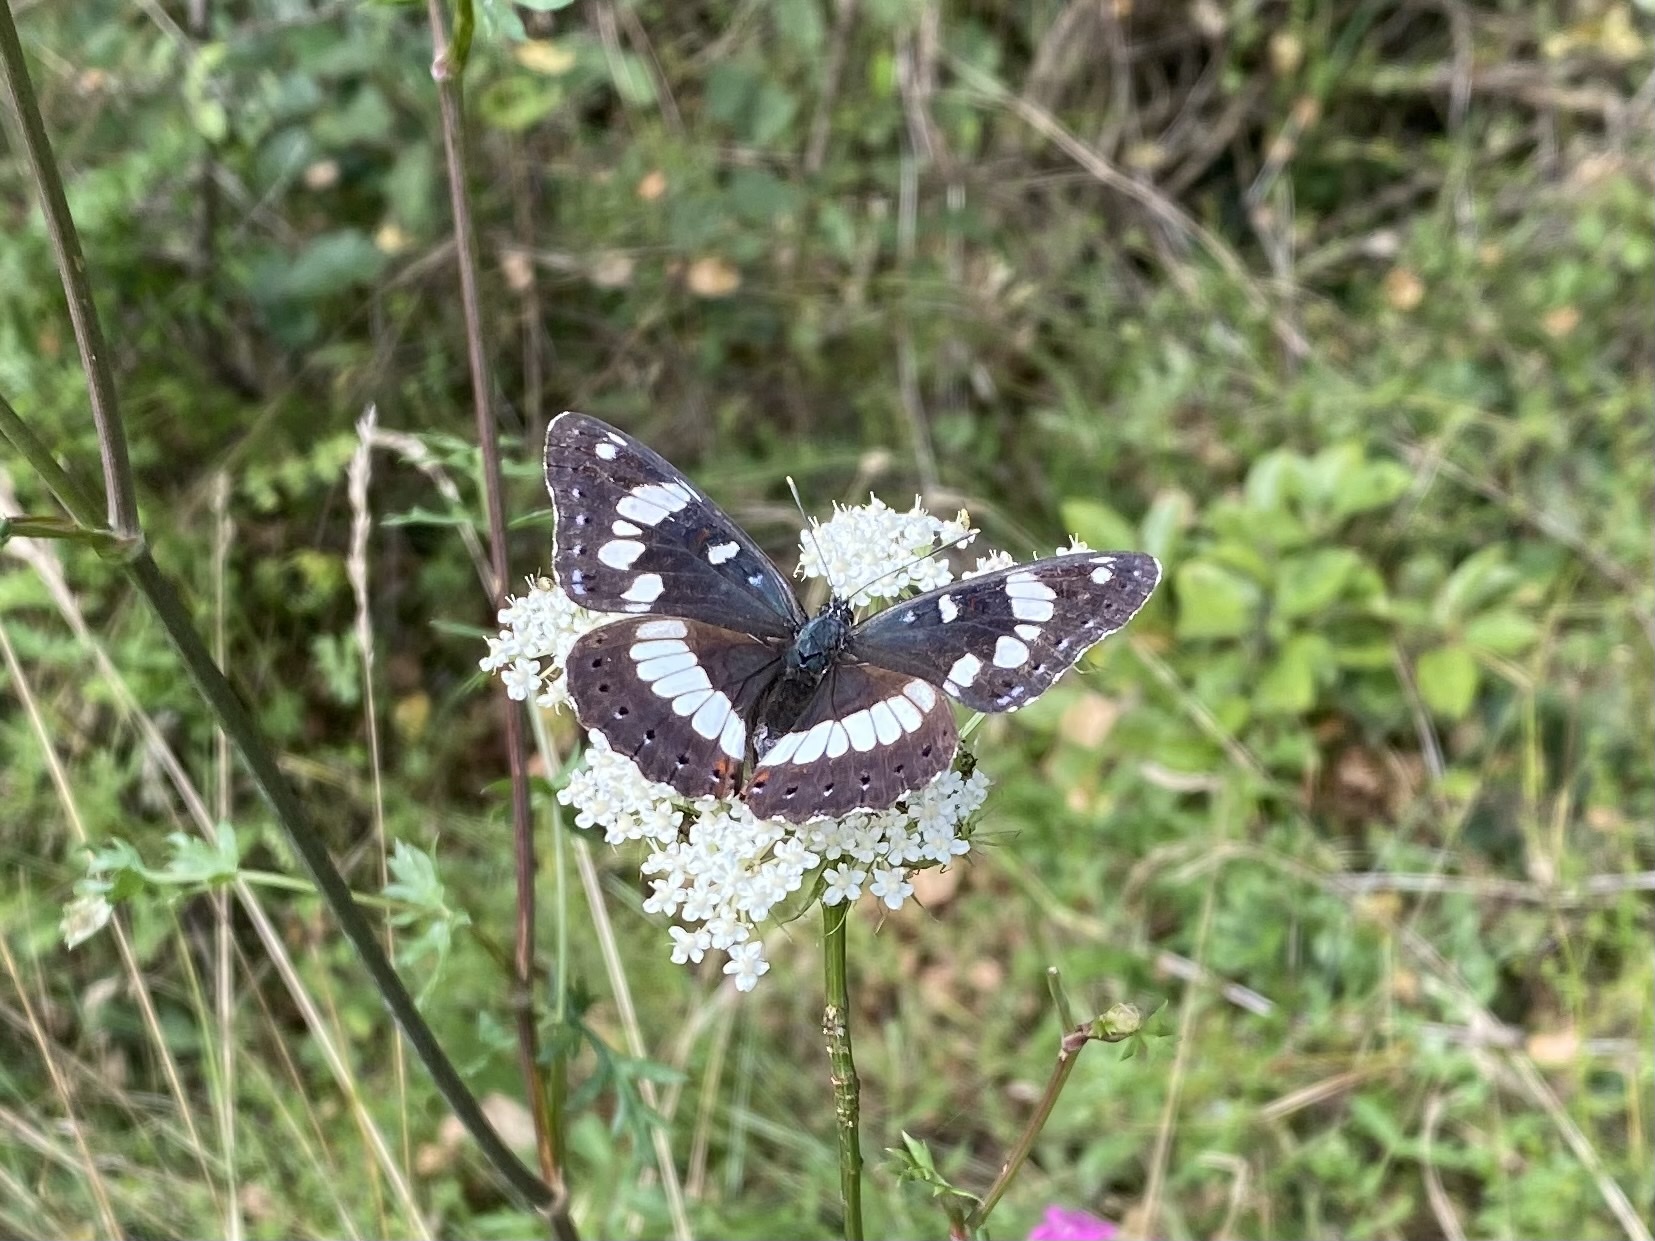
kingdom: Animalia
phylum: Arthropoda
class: Insecta
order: Lepidoptera
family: Nymphalidae
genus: Limenitis
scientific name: Limenitis reducta
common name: Southern white admiral
